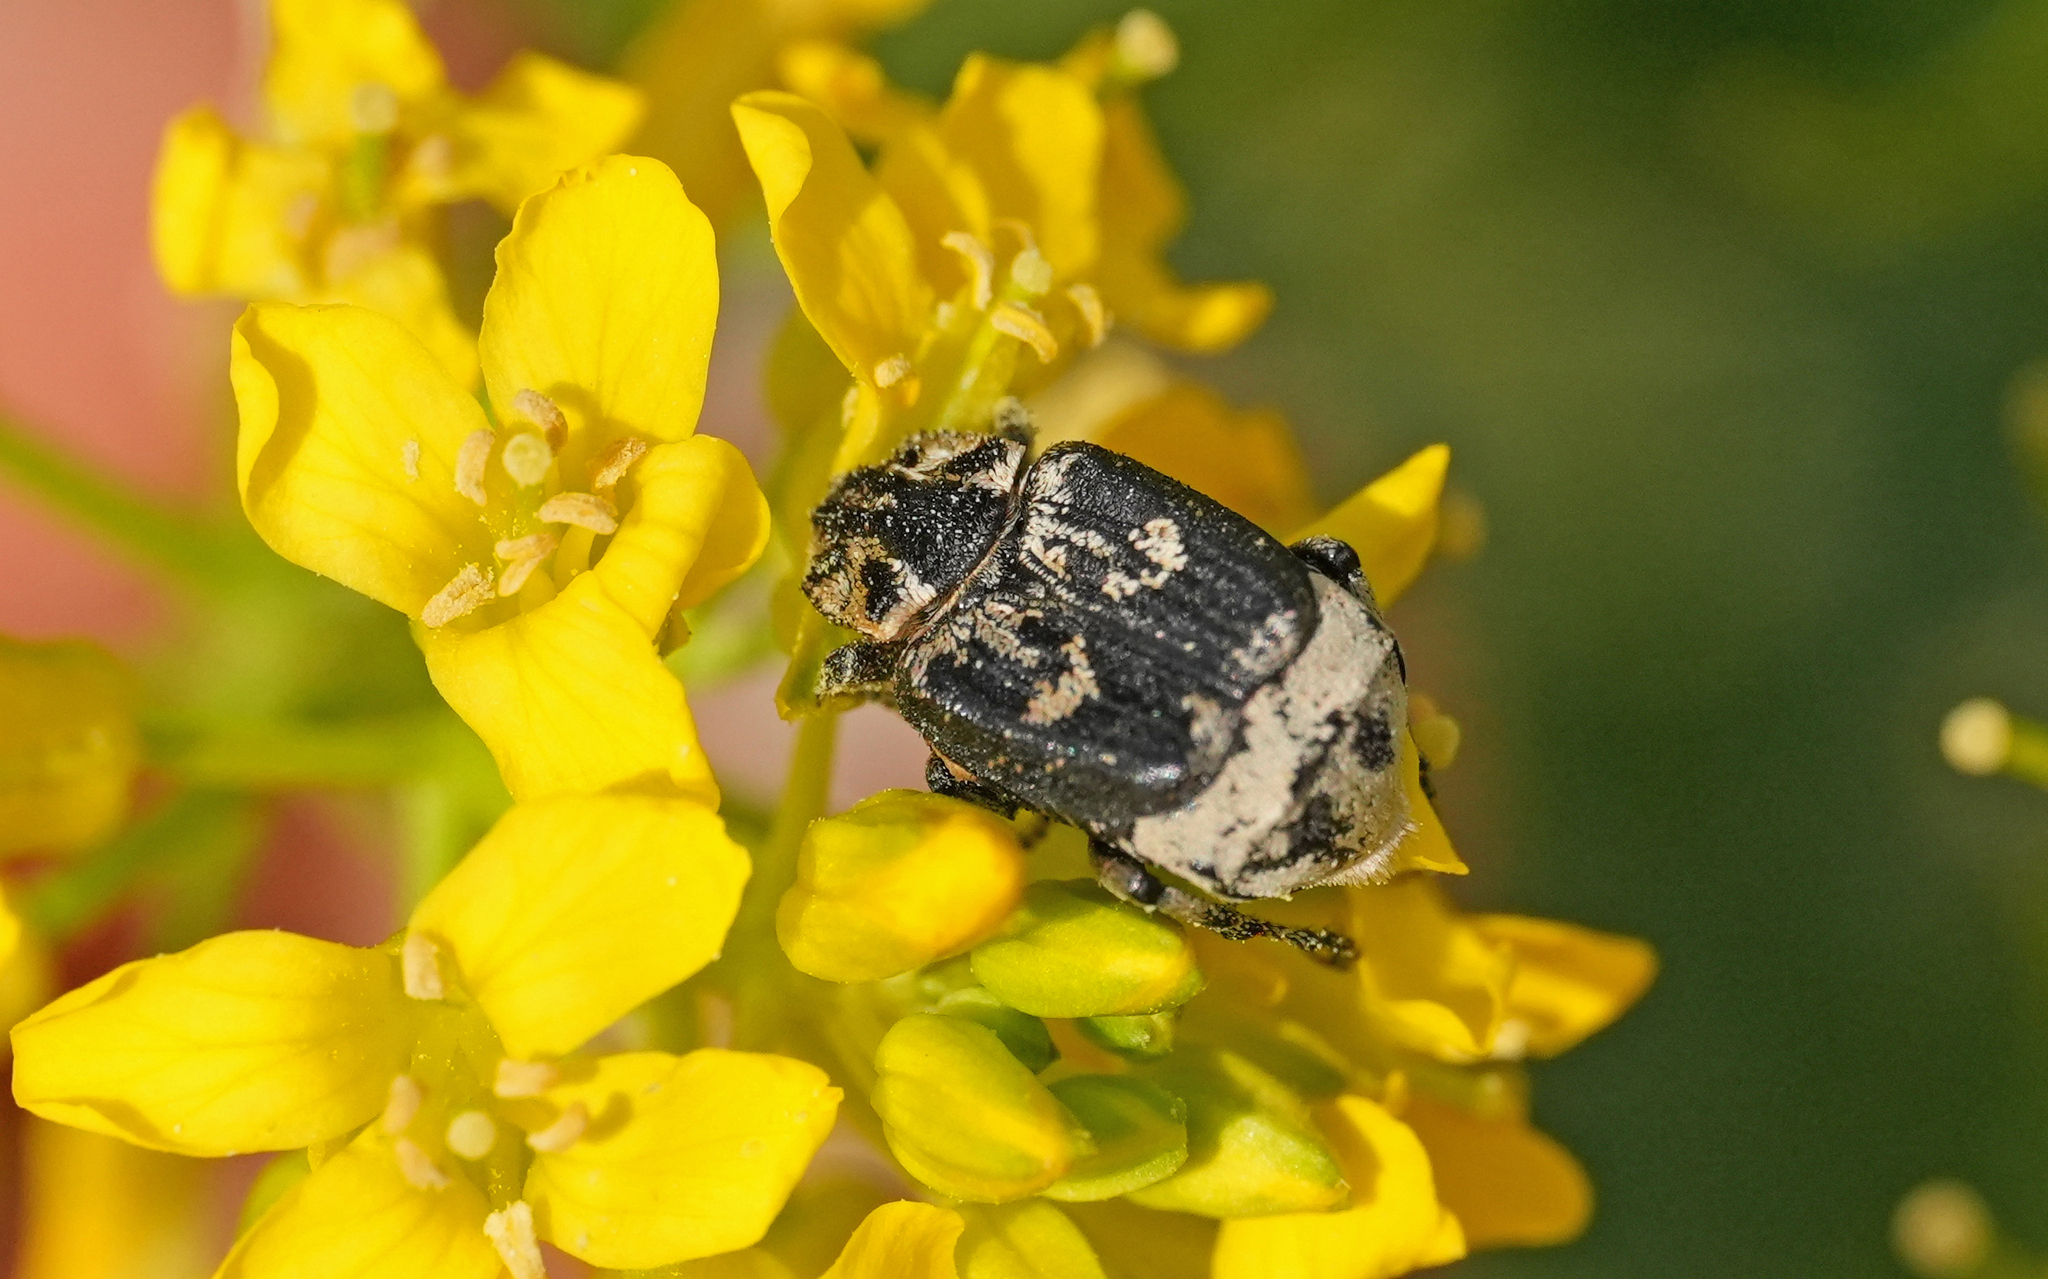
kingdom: Animalia
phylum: Arthropoda
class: Insecta
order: Coleoptera
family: Scarabaeidae
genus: Valgus
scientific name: Valgus hemipterus
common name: Bug flower chafer
